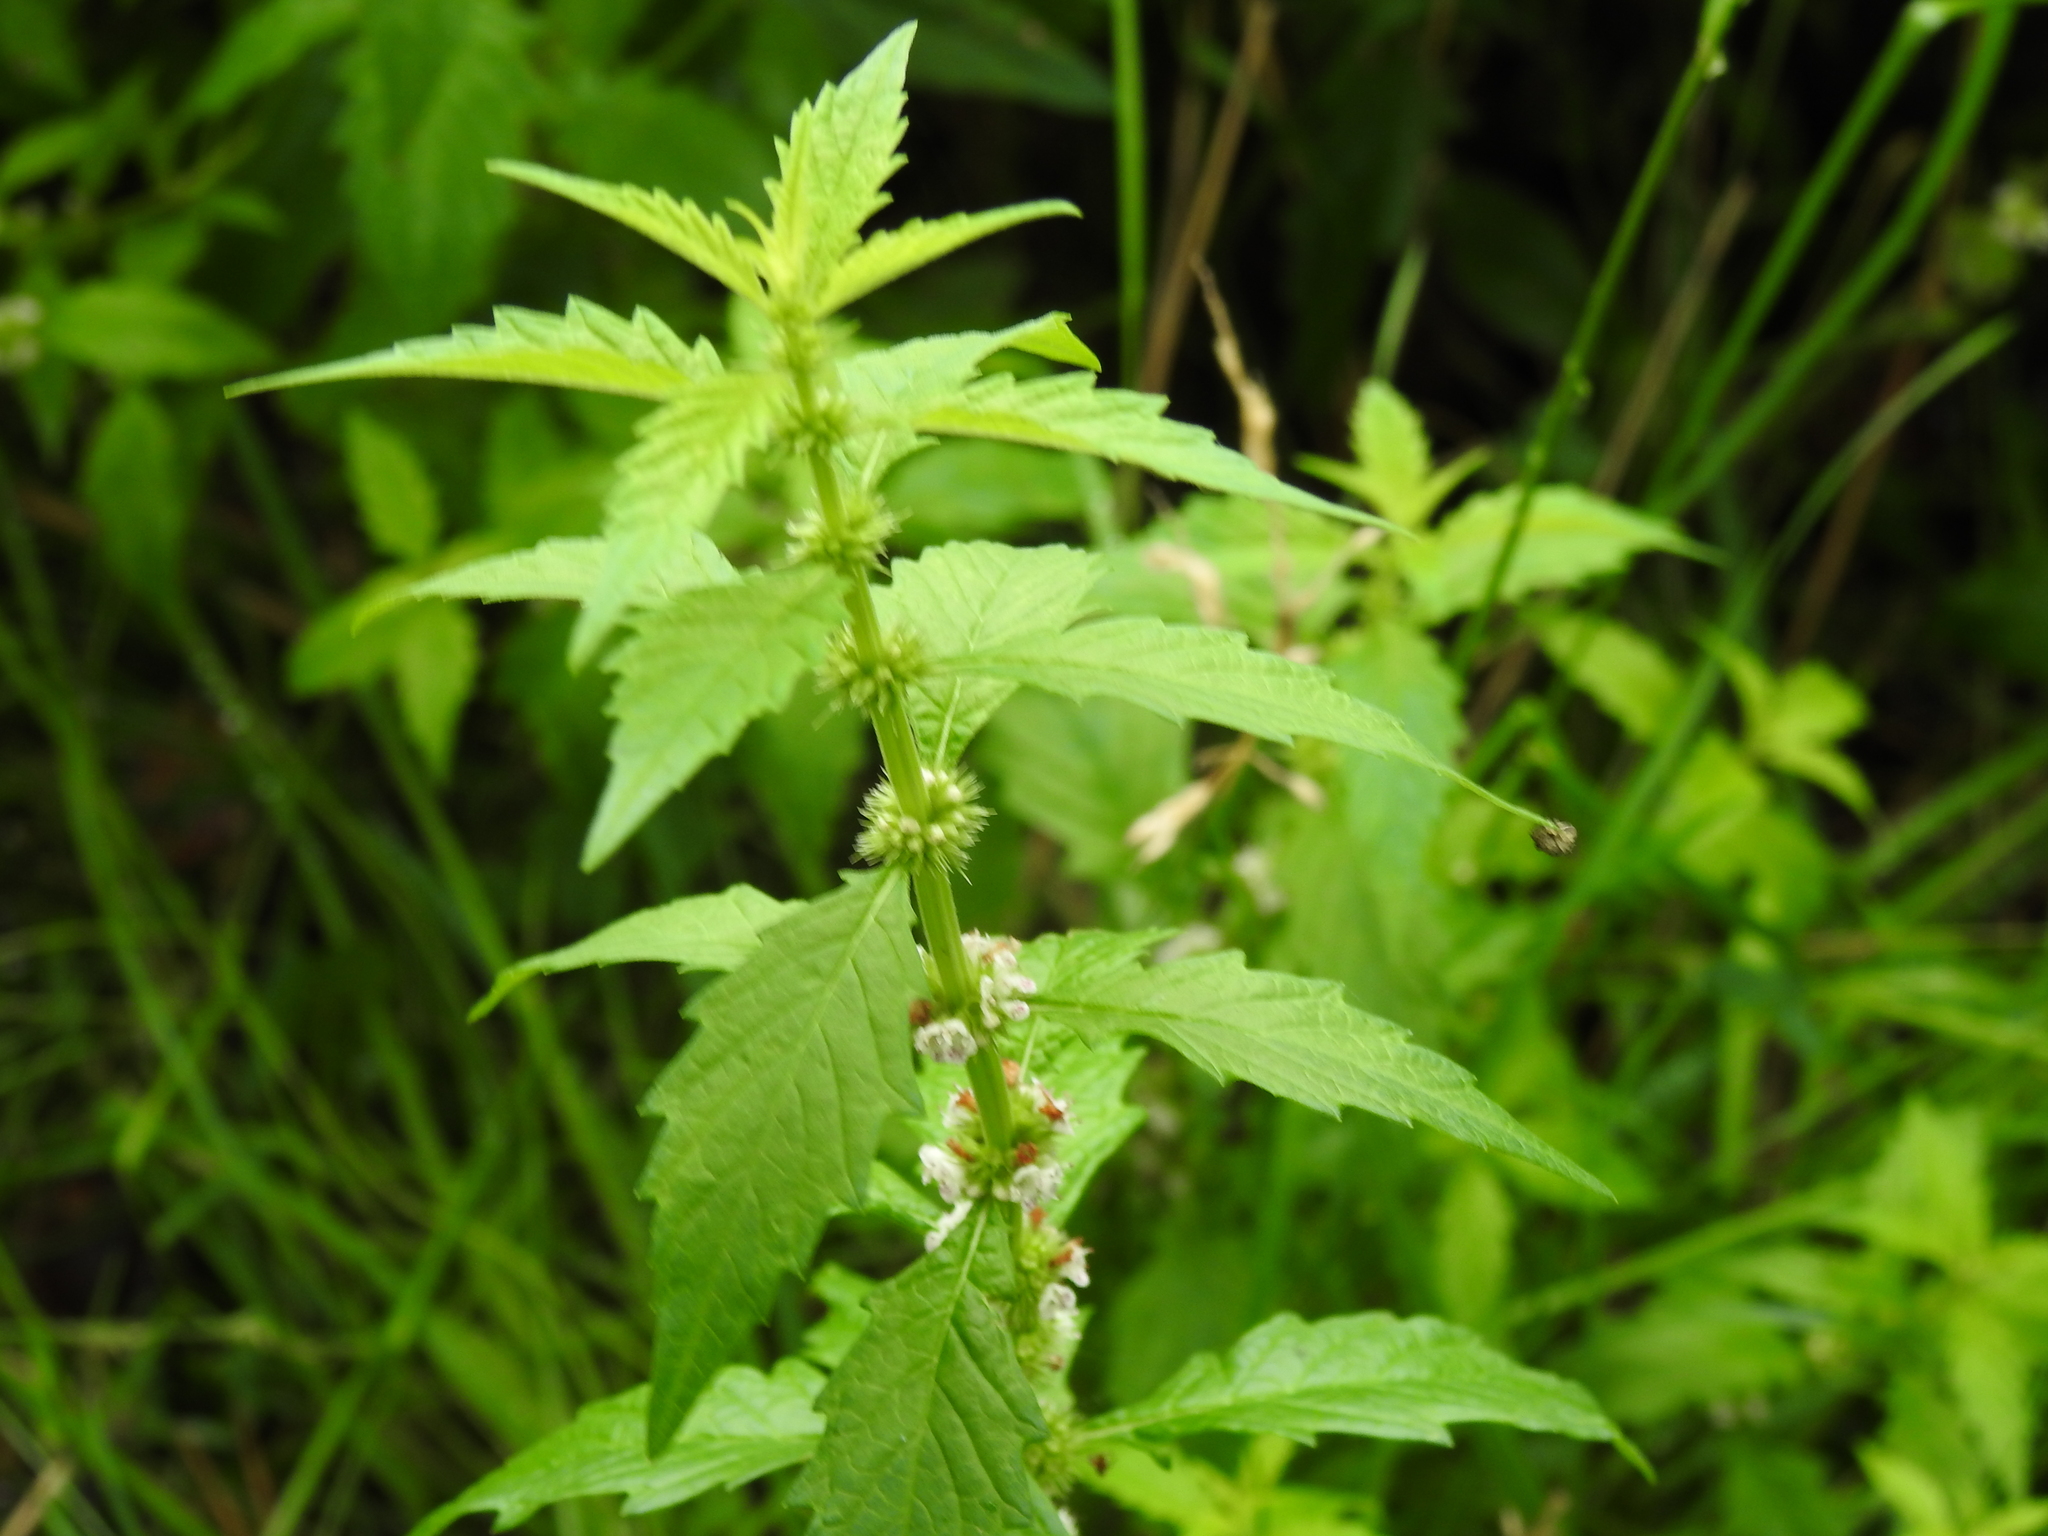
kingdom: Plantae
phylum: Tracheophyta
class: Magnoliopsida
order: Lamiales
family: Lamiaceae
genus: Lycopus
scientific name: Lycopus europaeus
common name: European bugleweed
